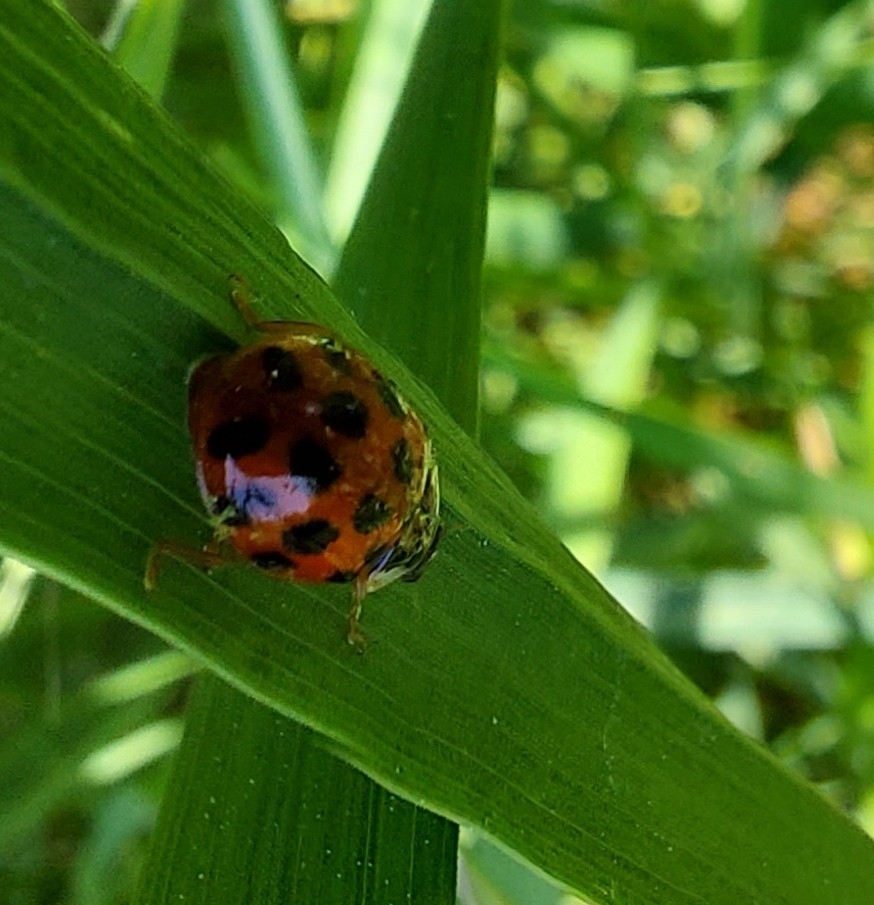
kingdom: Animalia
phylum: Arthropoda
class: Insecta
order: Coleoptera
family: Coccinellidae
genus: Harmonia
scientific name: Harmonia axyridis
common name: Harlequin ladybird
